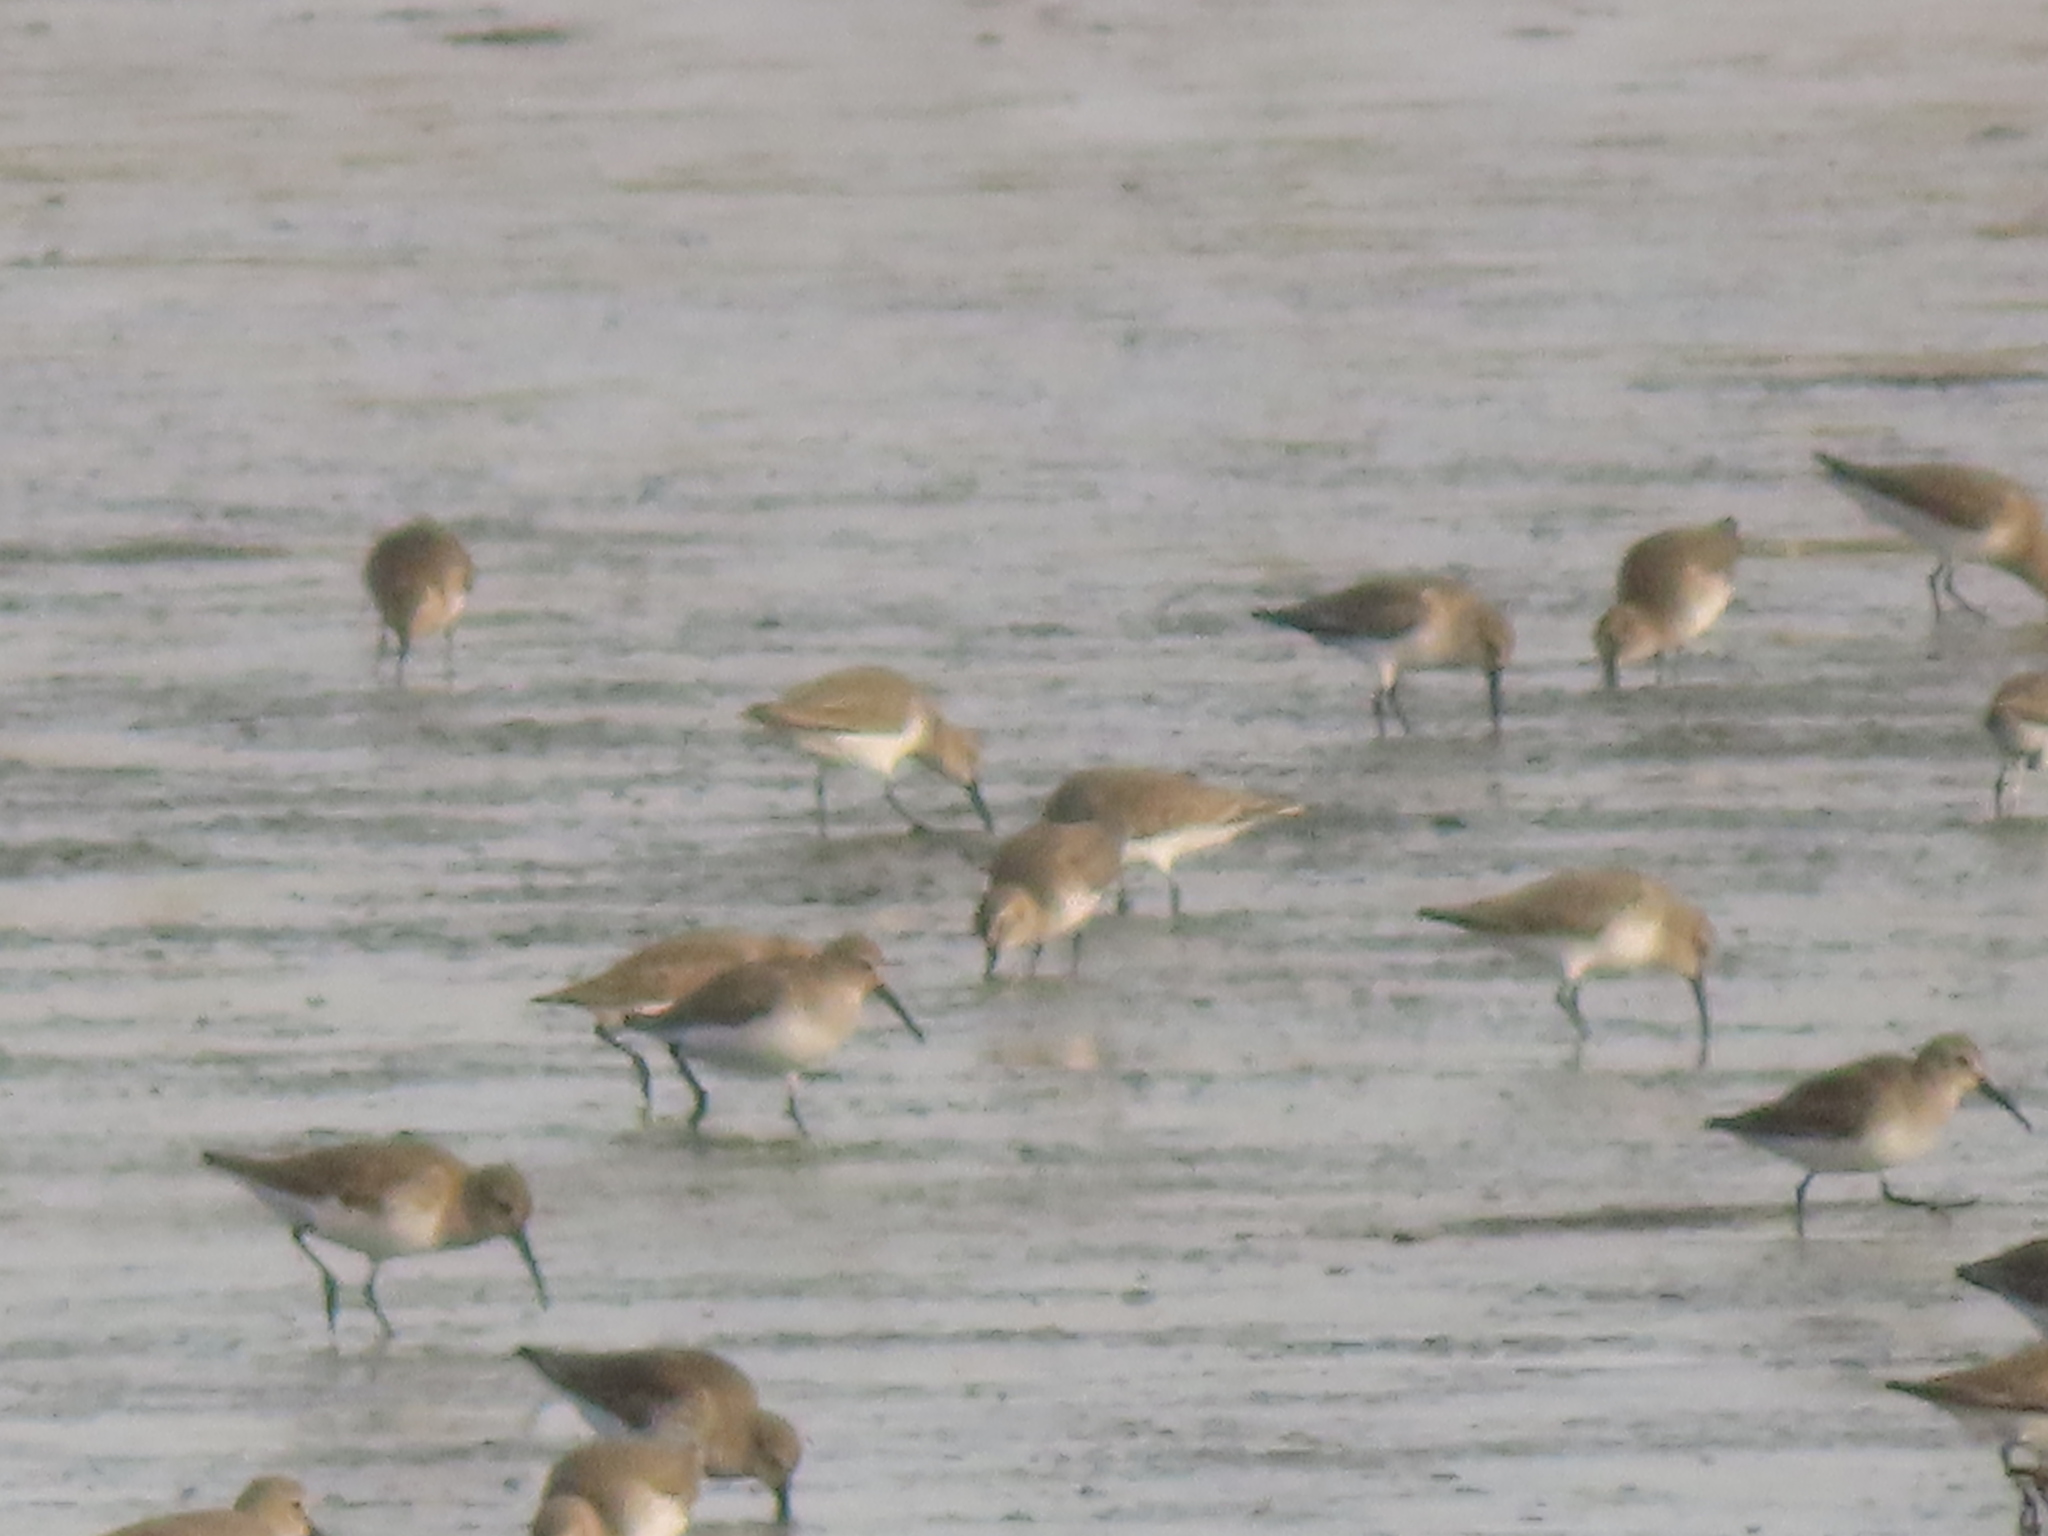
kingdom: Animalia
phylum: Chordata
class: Aves
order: Charadriiformes
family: Scolopacidae
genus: Calidris
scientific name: Calidris alpina
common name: Dunlin
